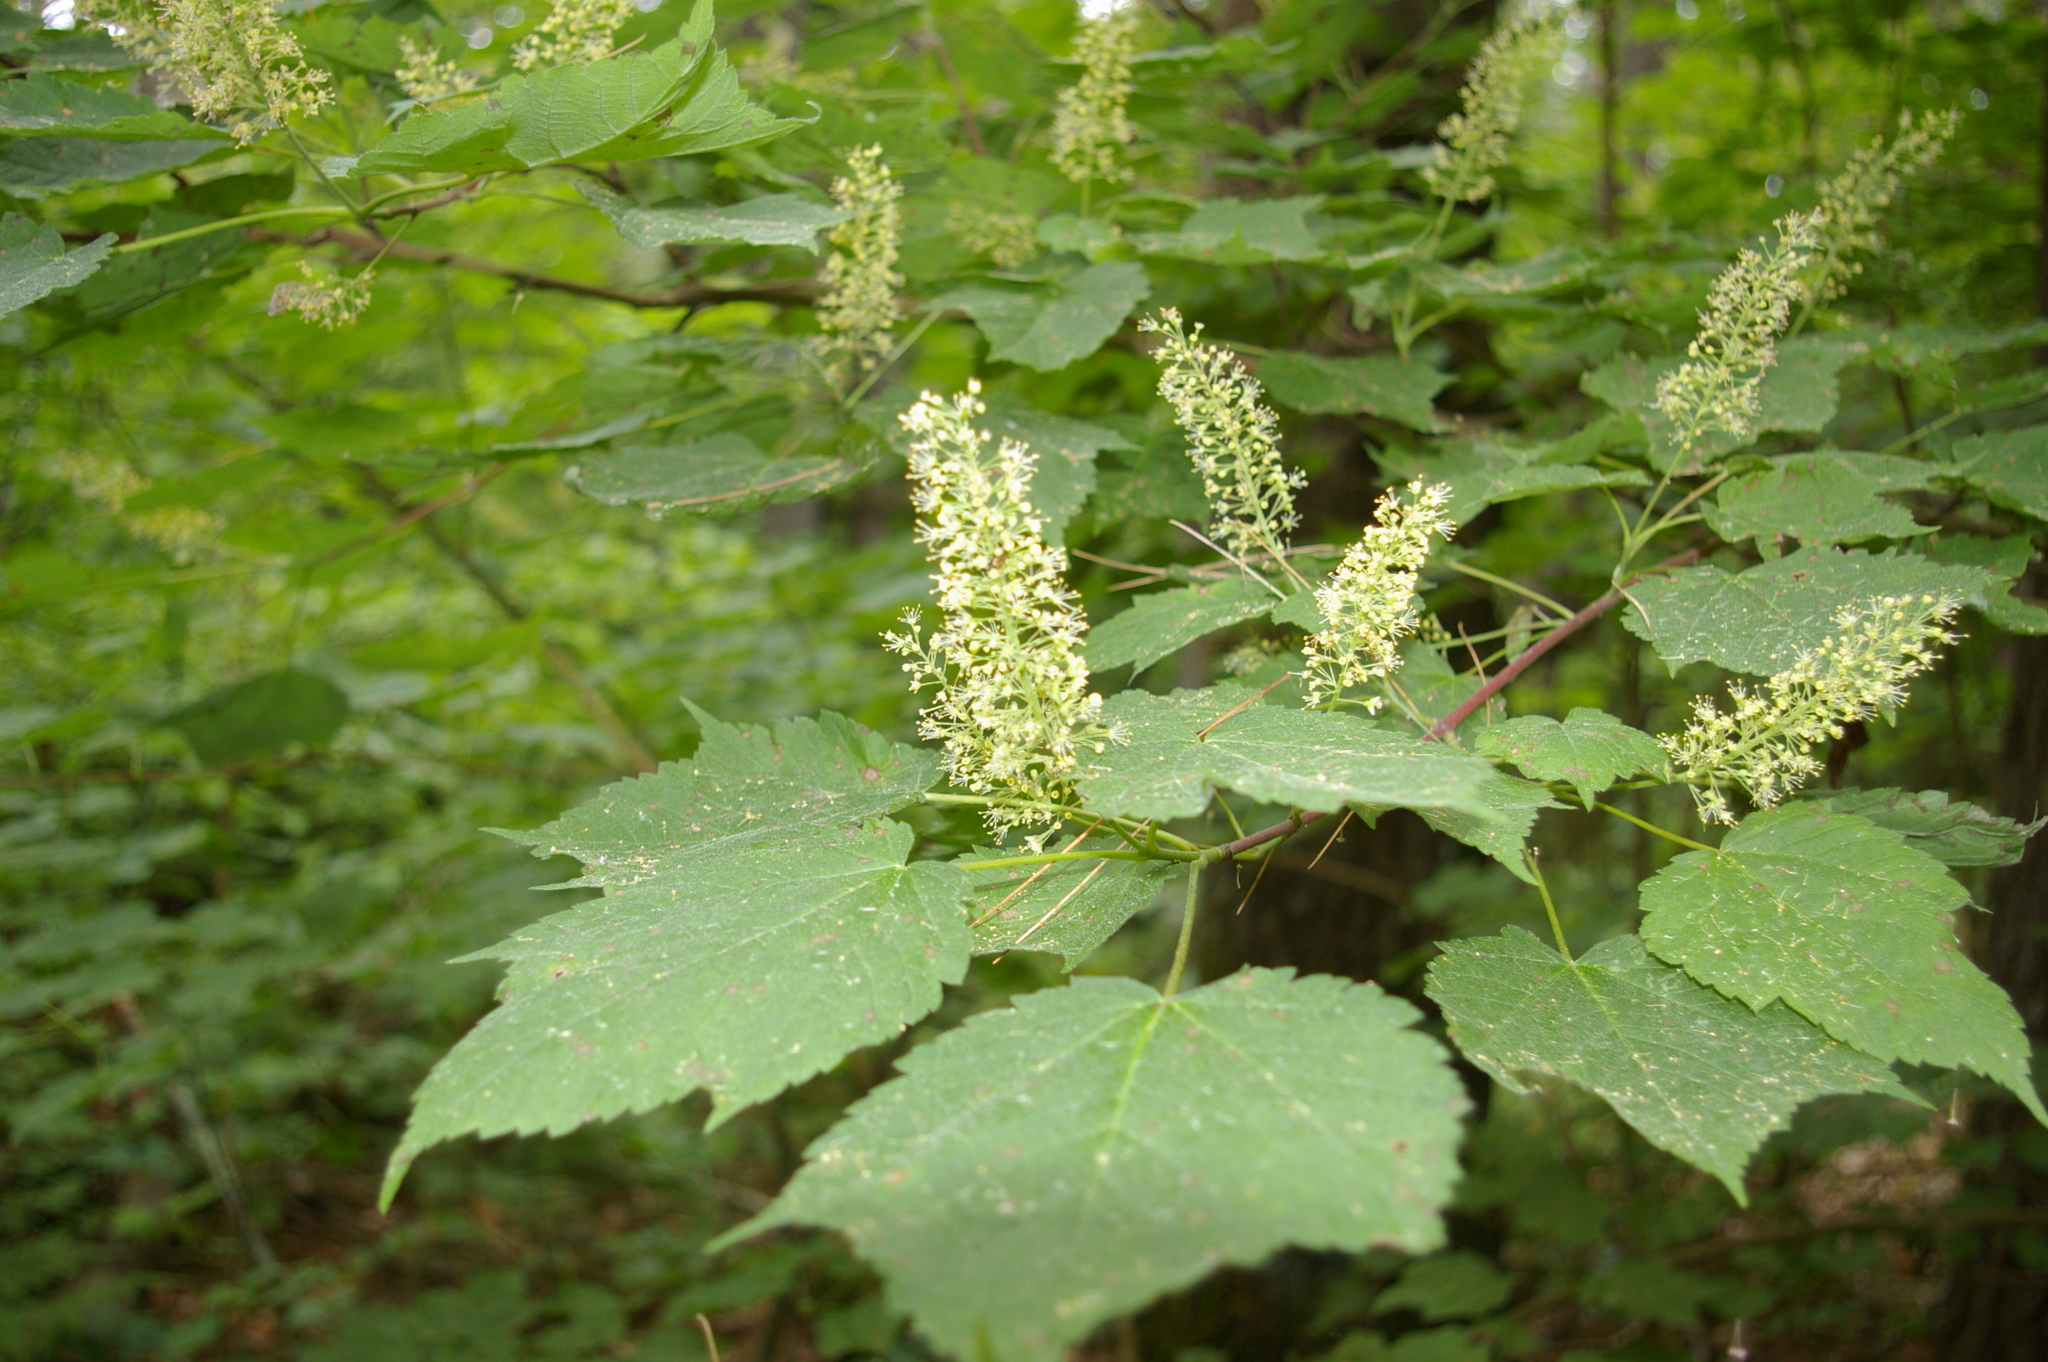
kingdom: Plantae
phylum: Tracheophyta
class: Magnoliopsida
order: Sapindales
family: Sapindaceae
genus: Acer
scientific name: Acer spicatum
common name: Mountain maple
